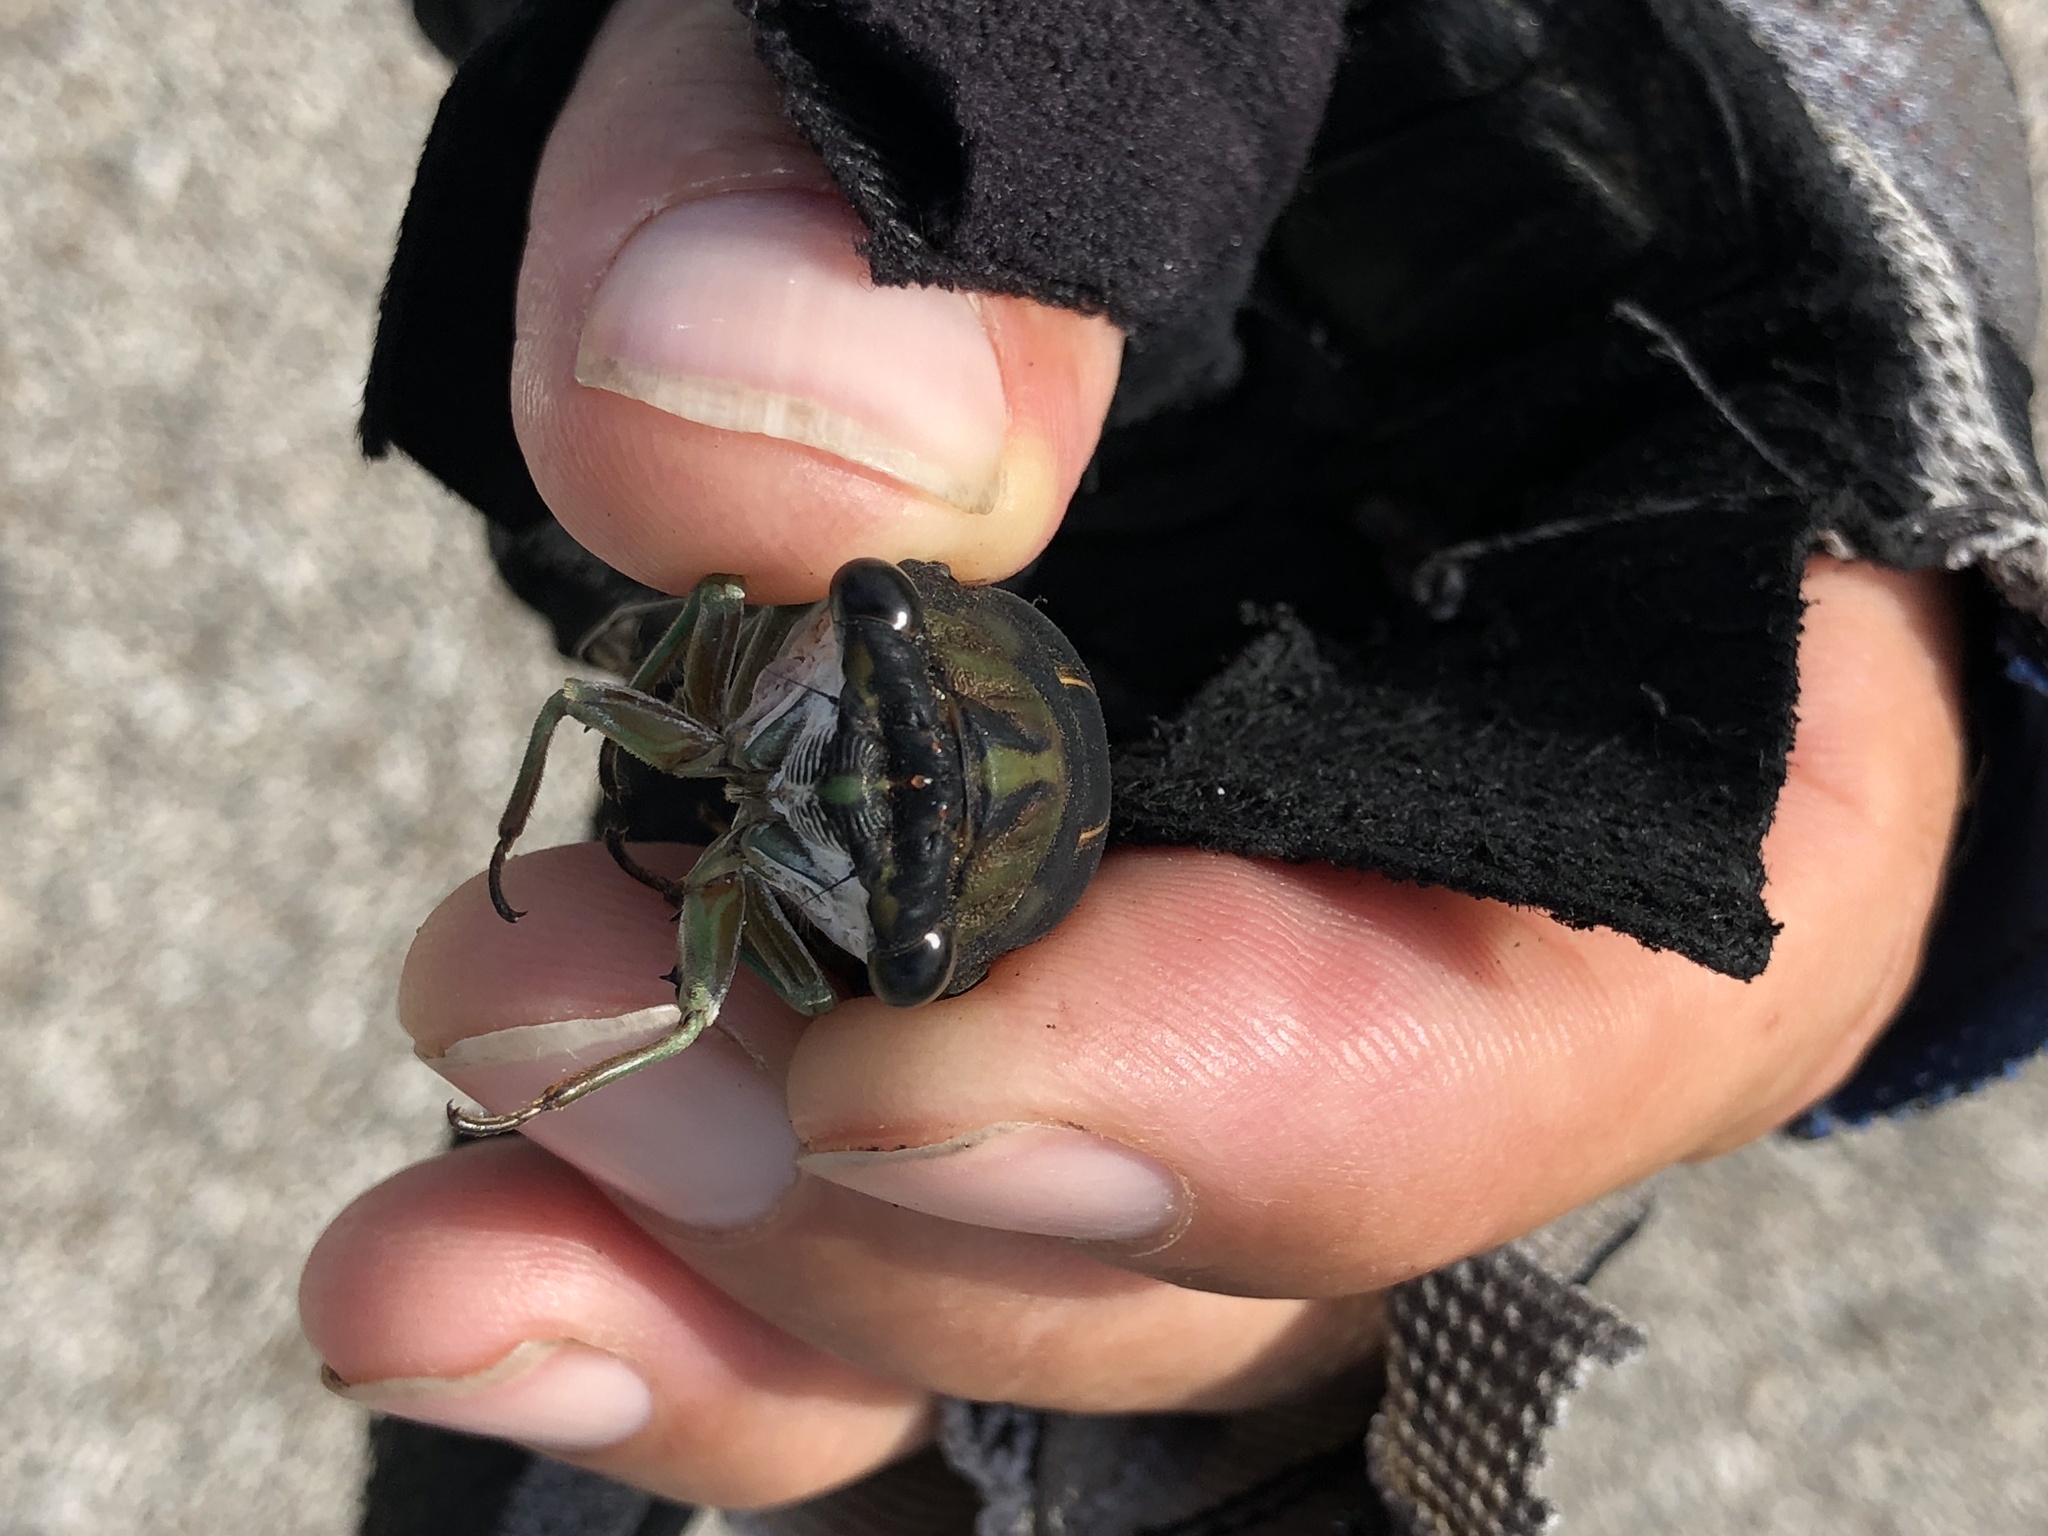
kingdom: Animalia
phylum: Arthropoda
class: Insecta
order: Hemiptera
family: Cicadidae
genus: Neotibicen
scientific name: Neotibicen tibicen
